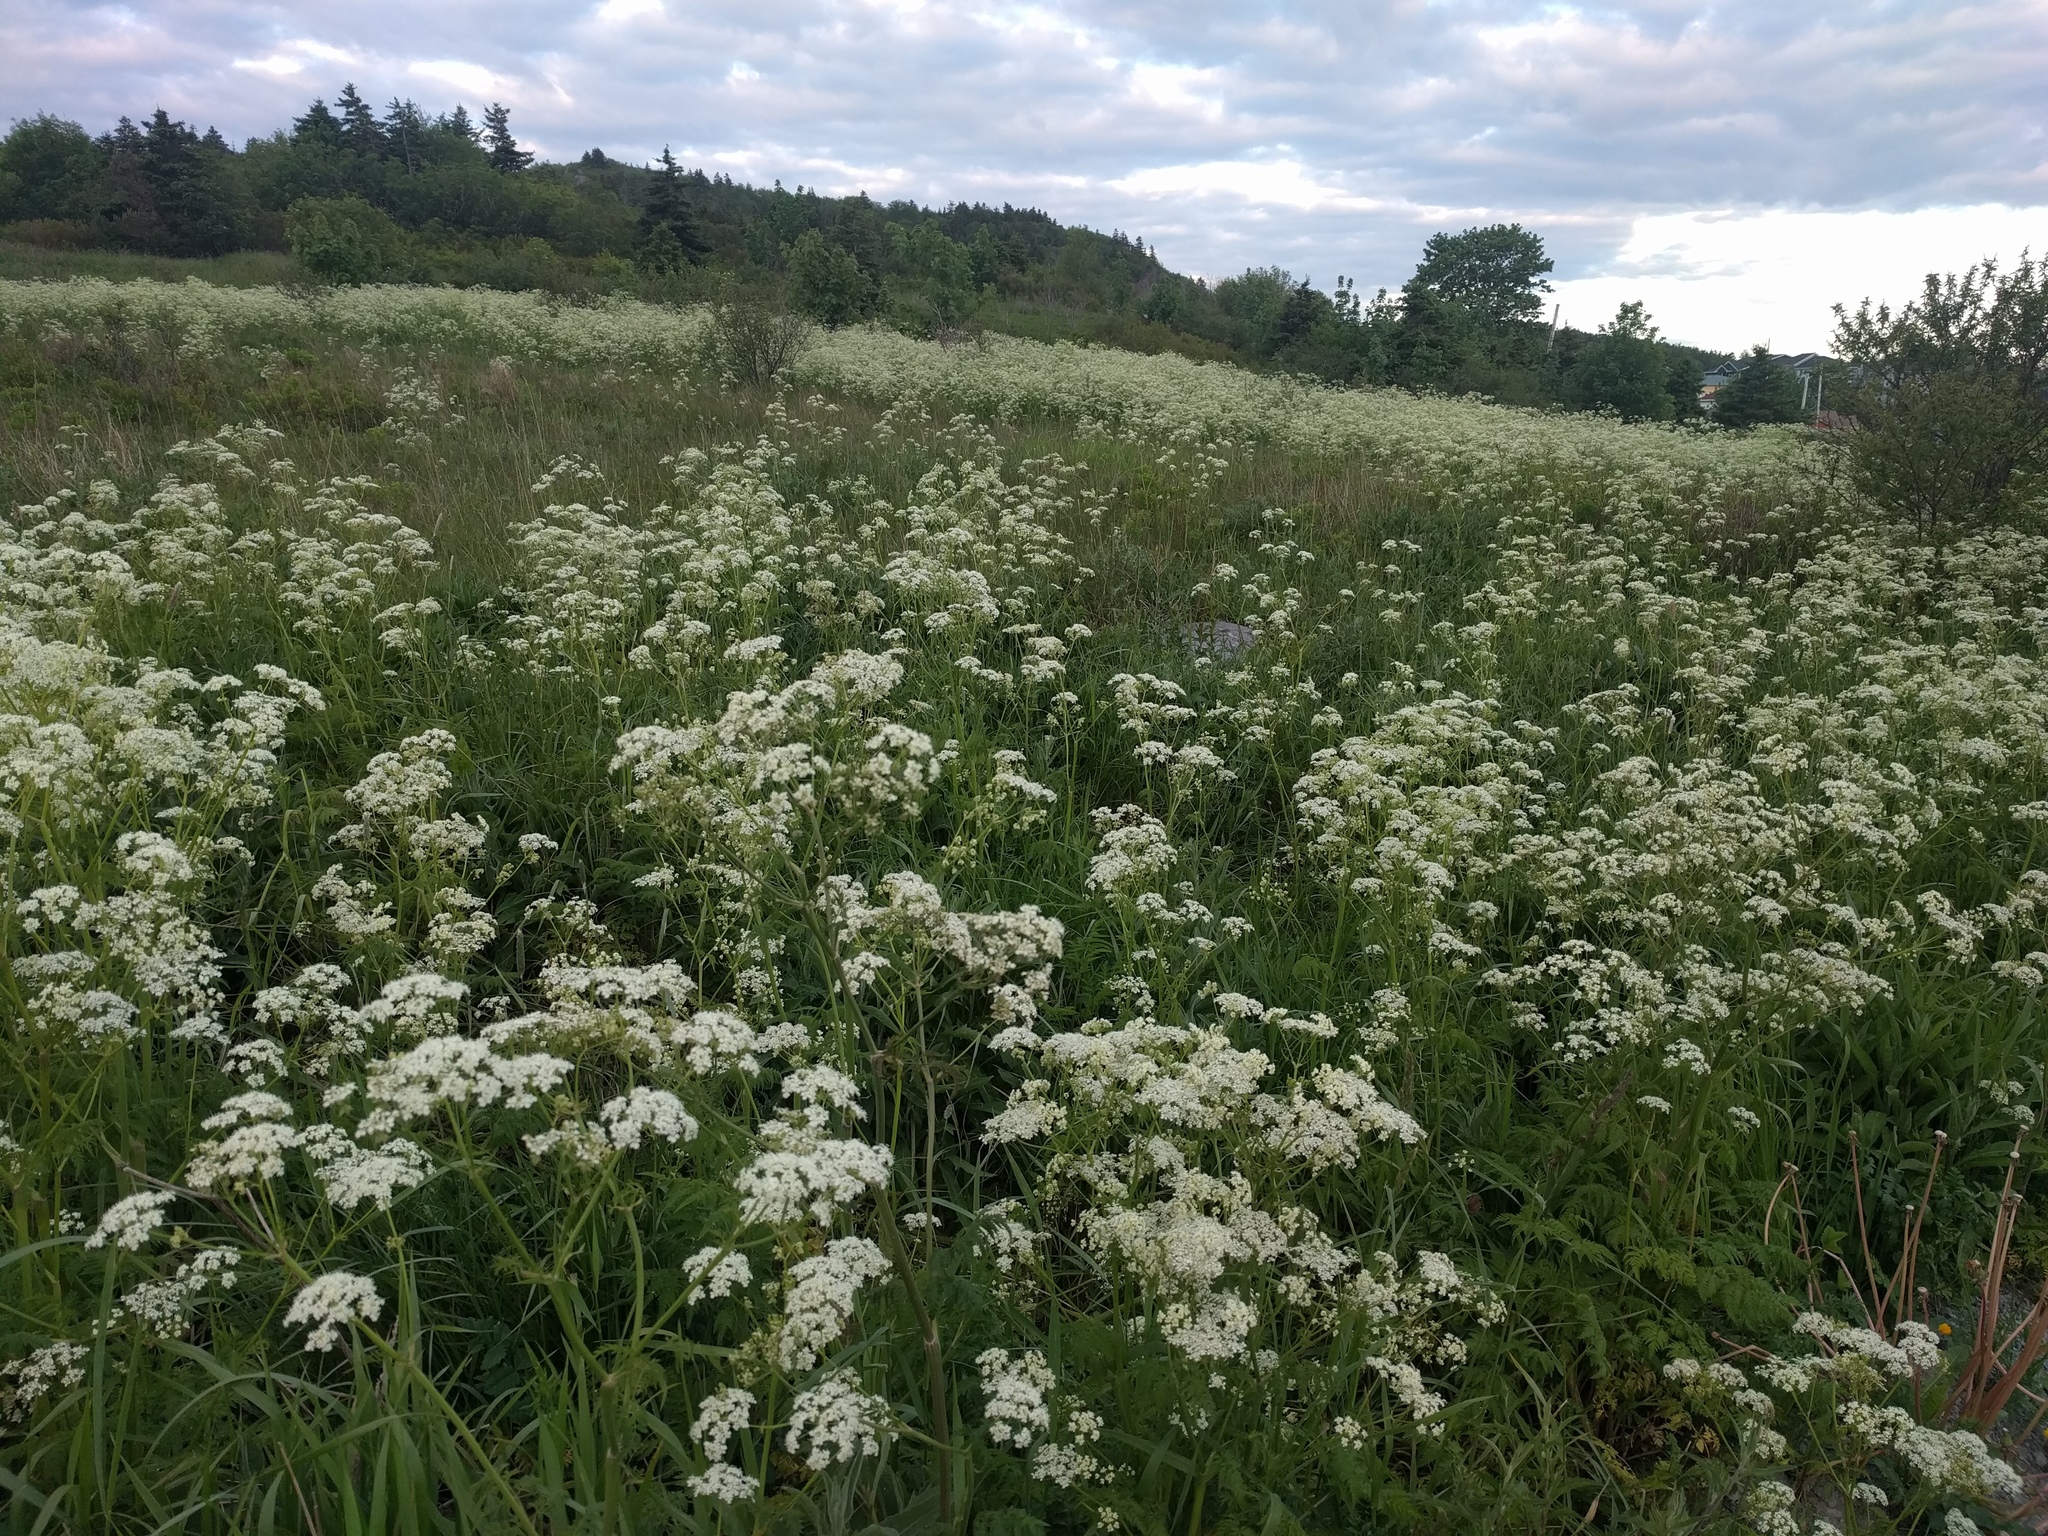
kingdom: Plantae
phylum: Tracheophyta
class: Magnoliopsida
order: Apiales
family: Apiaceae
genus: Daucus
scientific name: Daucus carota
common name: Wild carrot
